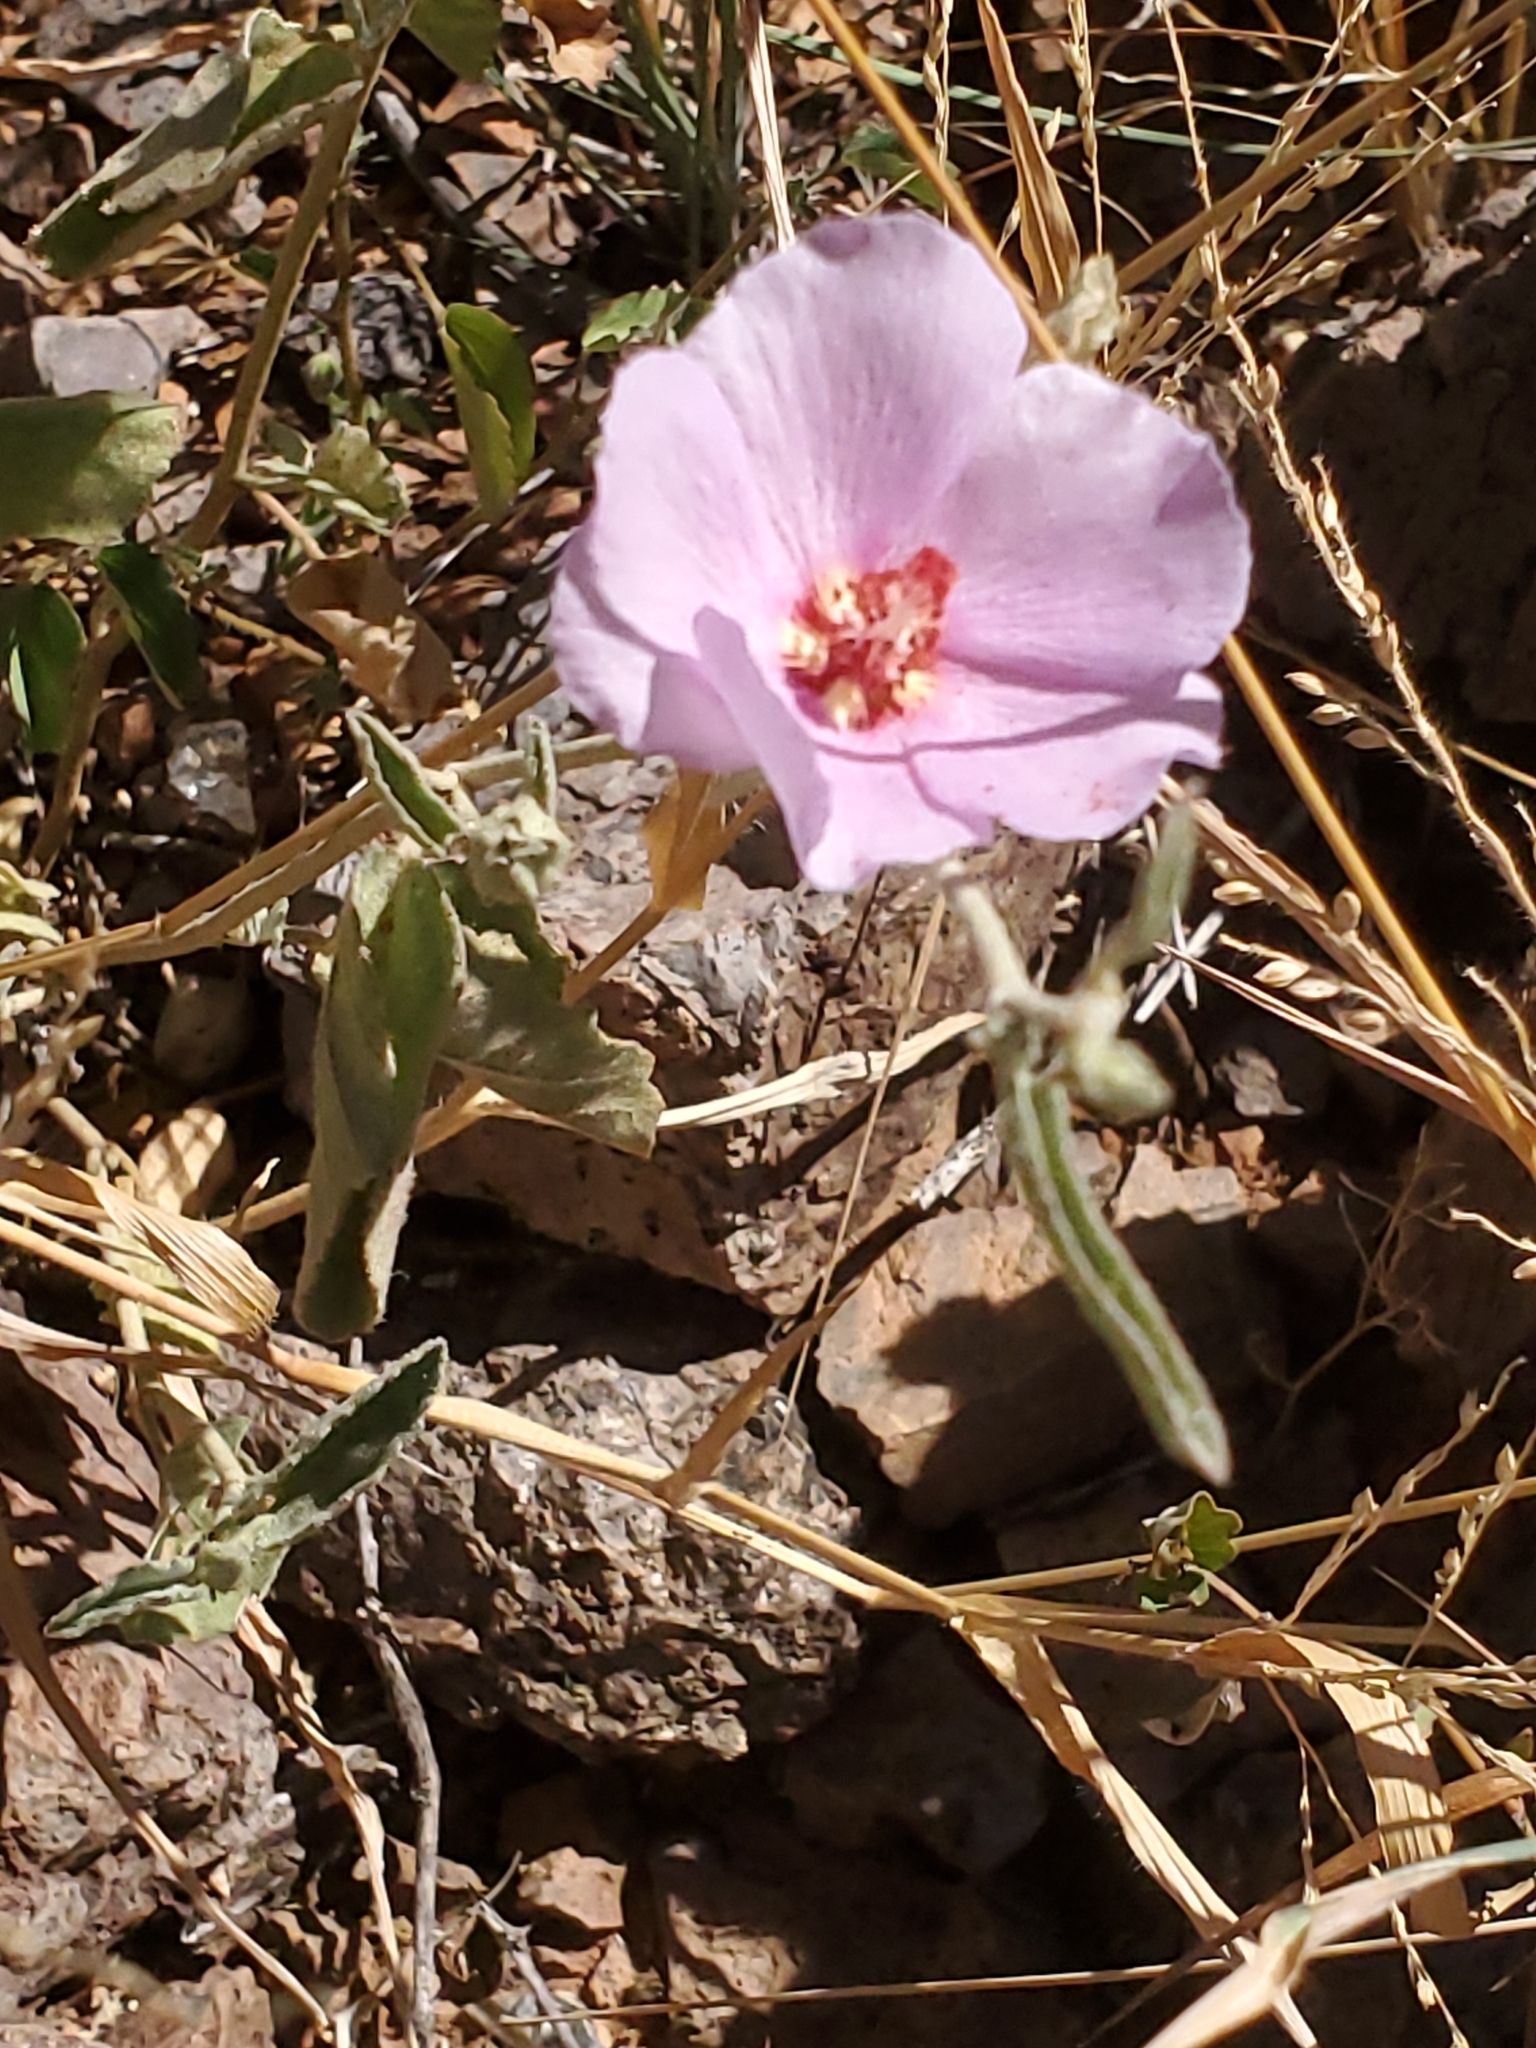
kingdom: Plantae
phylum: Tracheophyta
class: Magnoliopsida
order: Malvales
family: Malvaceae
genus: Hibiscus
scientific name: Hibiscus denudatus
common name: Paleface
